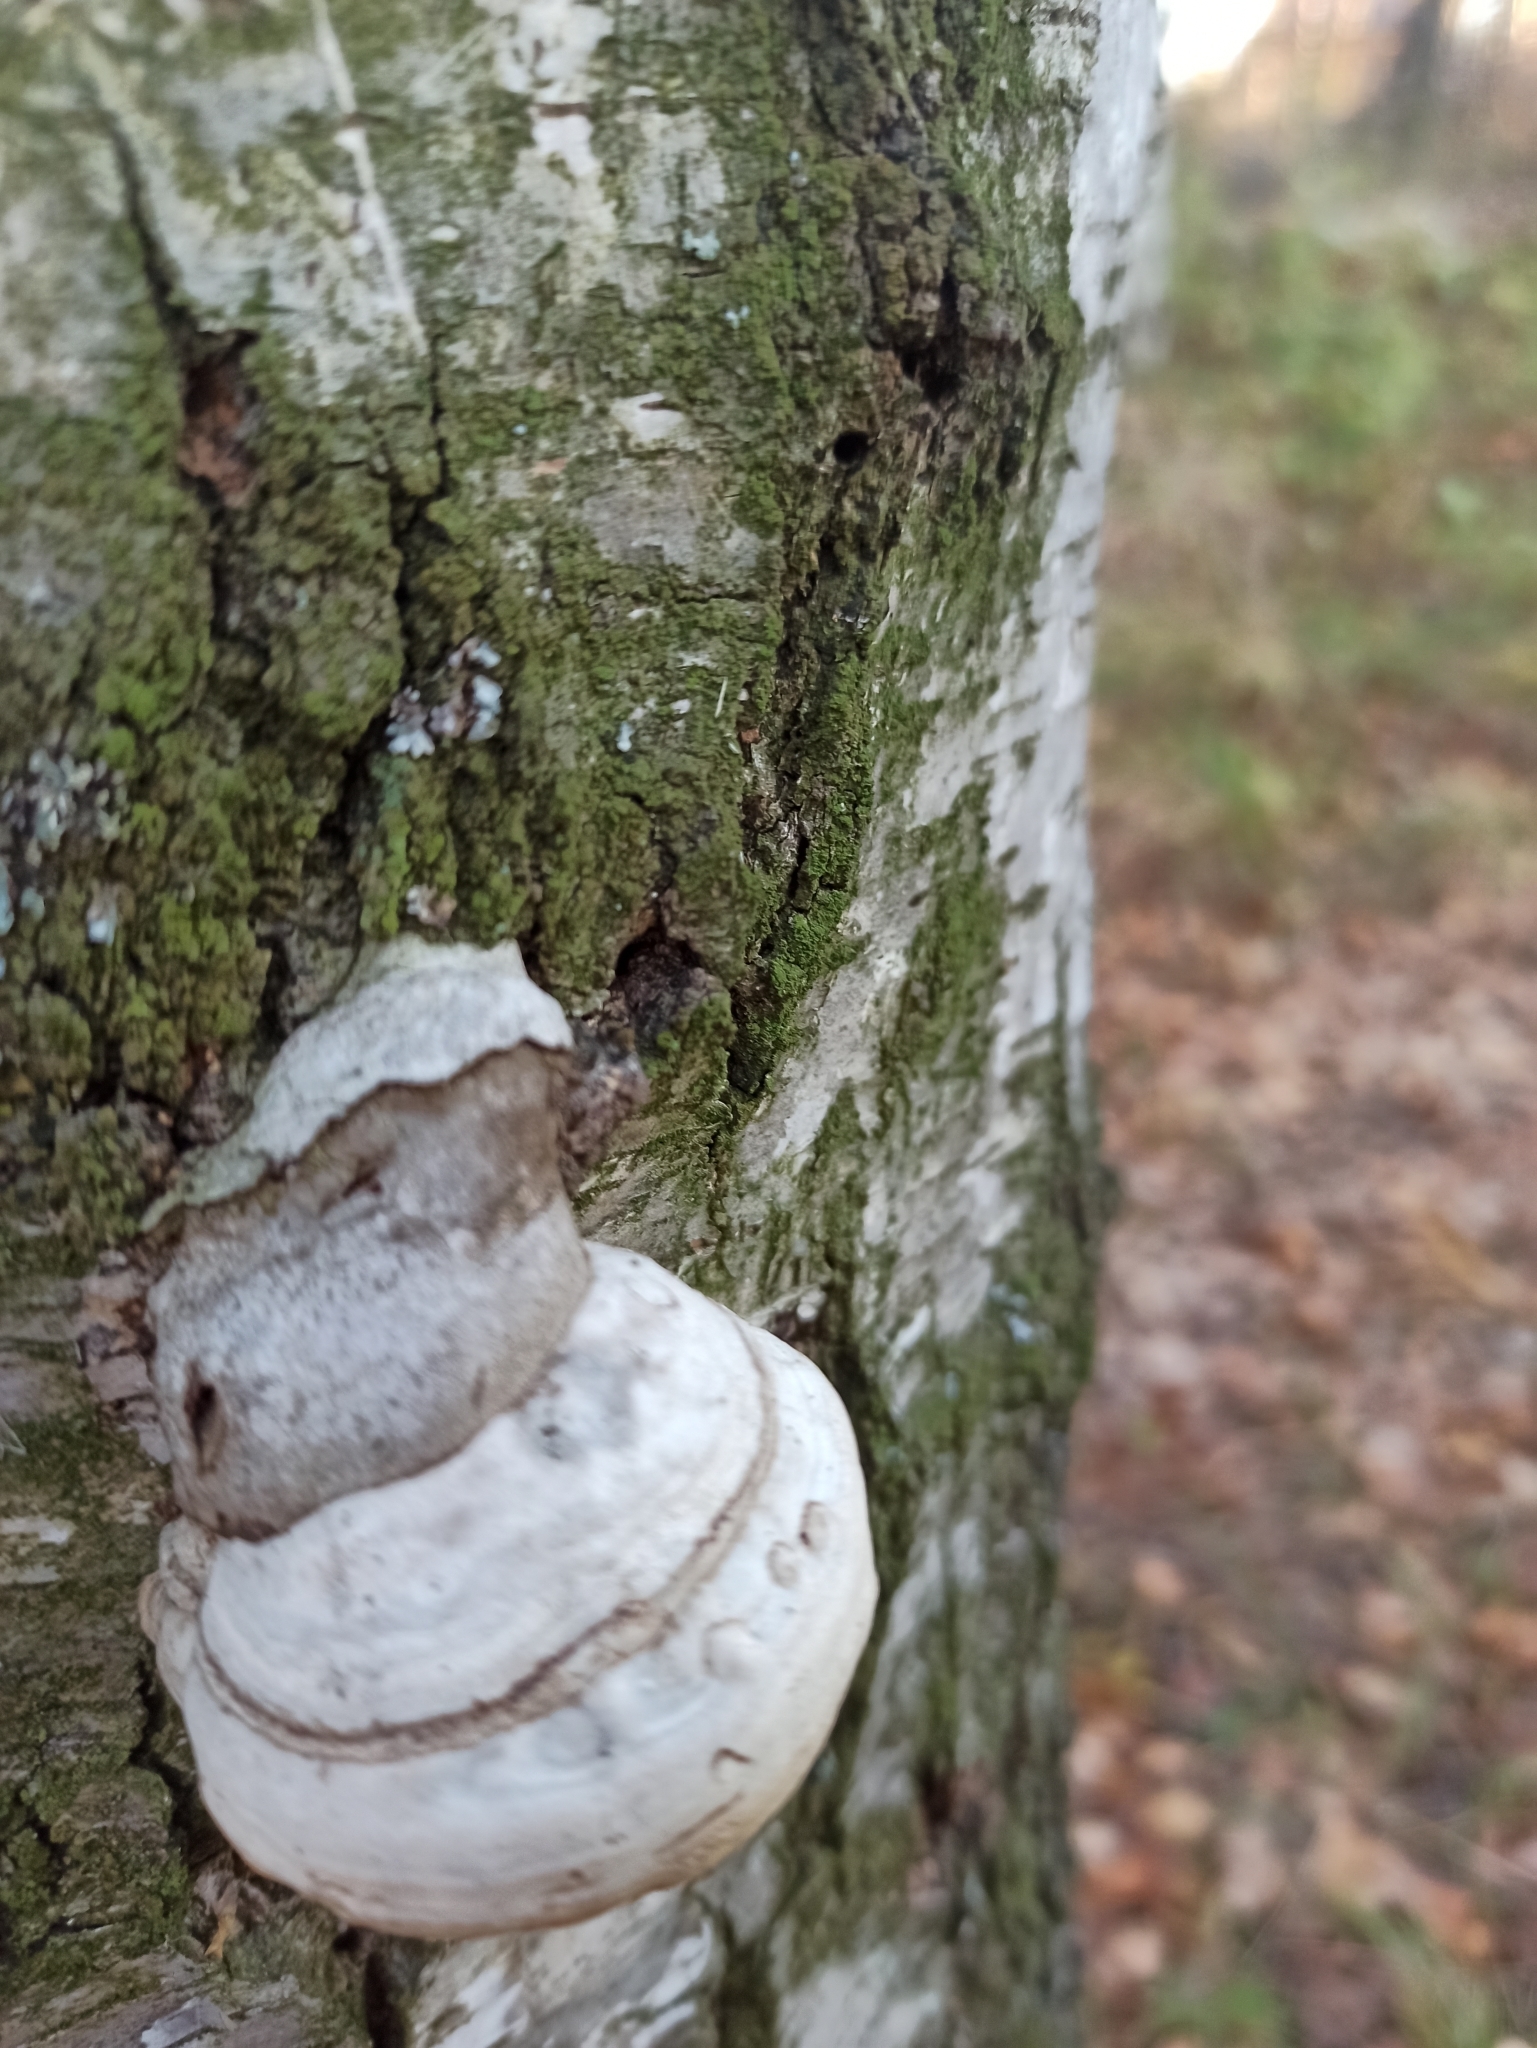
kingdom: Fungi
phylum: Basidiomycota
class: Agaricomycetes
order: Polyporales
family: Polyporaceae
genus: Fomes
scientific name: Fomes fomentarius
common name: Hoof fungus
